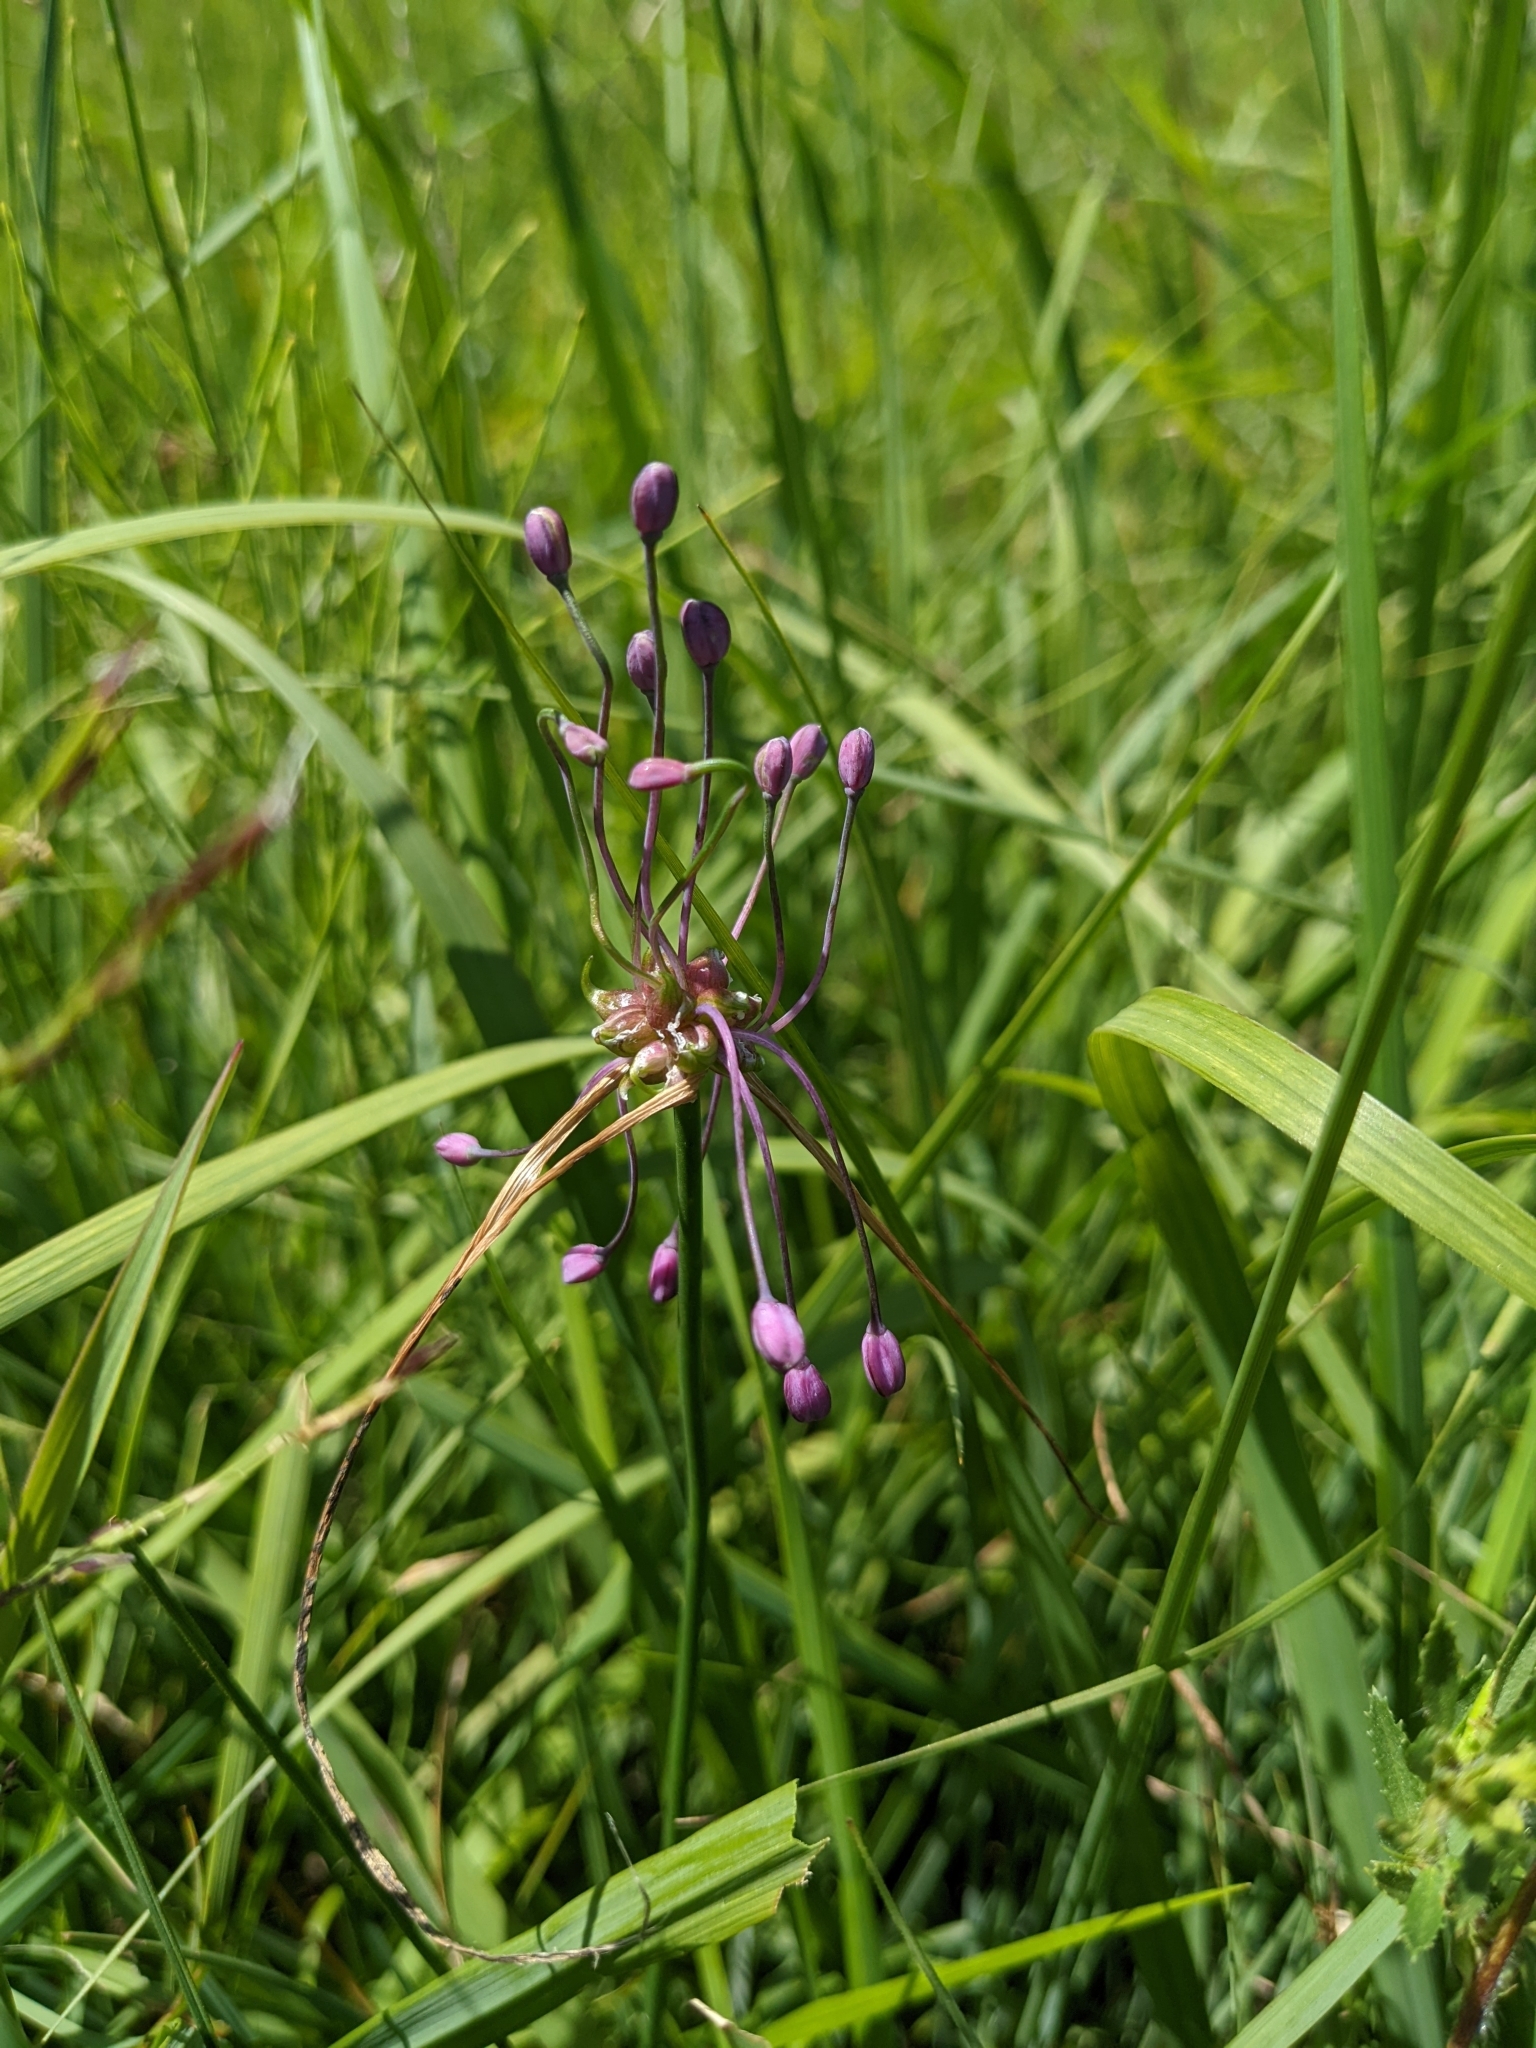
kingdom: Plantae
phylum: Tracheophyta
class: Liliopsida
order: Asparagales
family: Amaryllidaceae
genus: Allium
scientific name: Allium carinatum
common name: Keeled garlic
